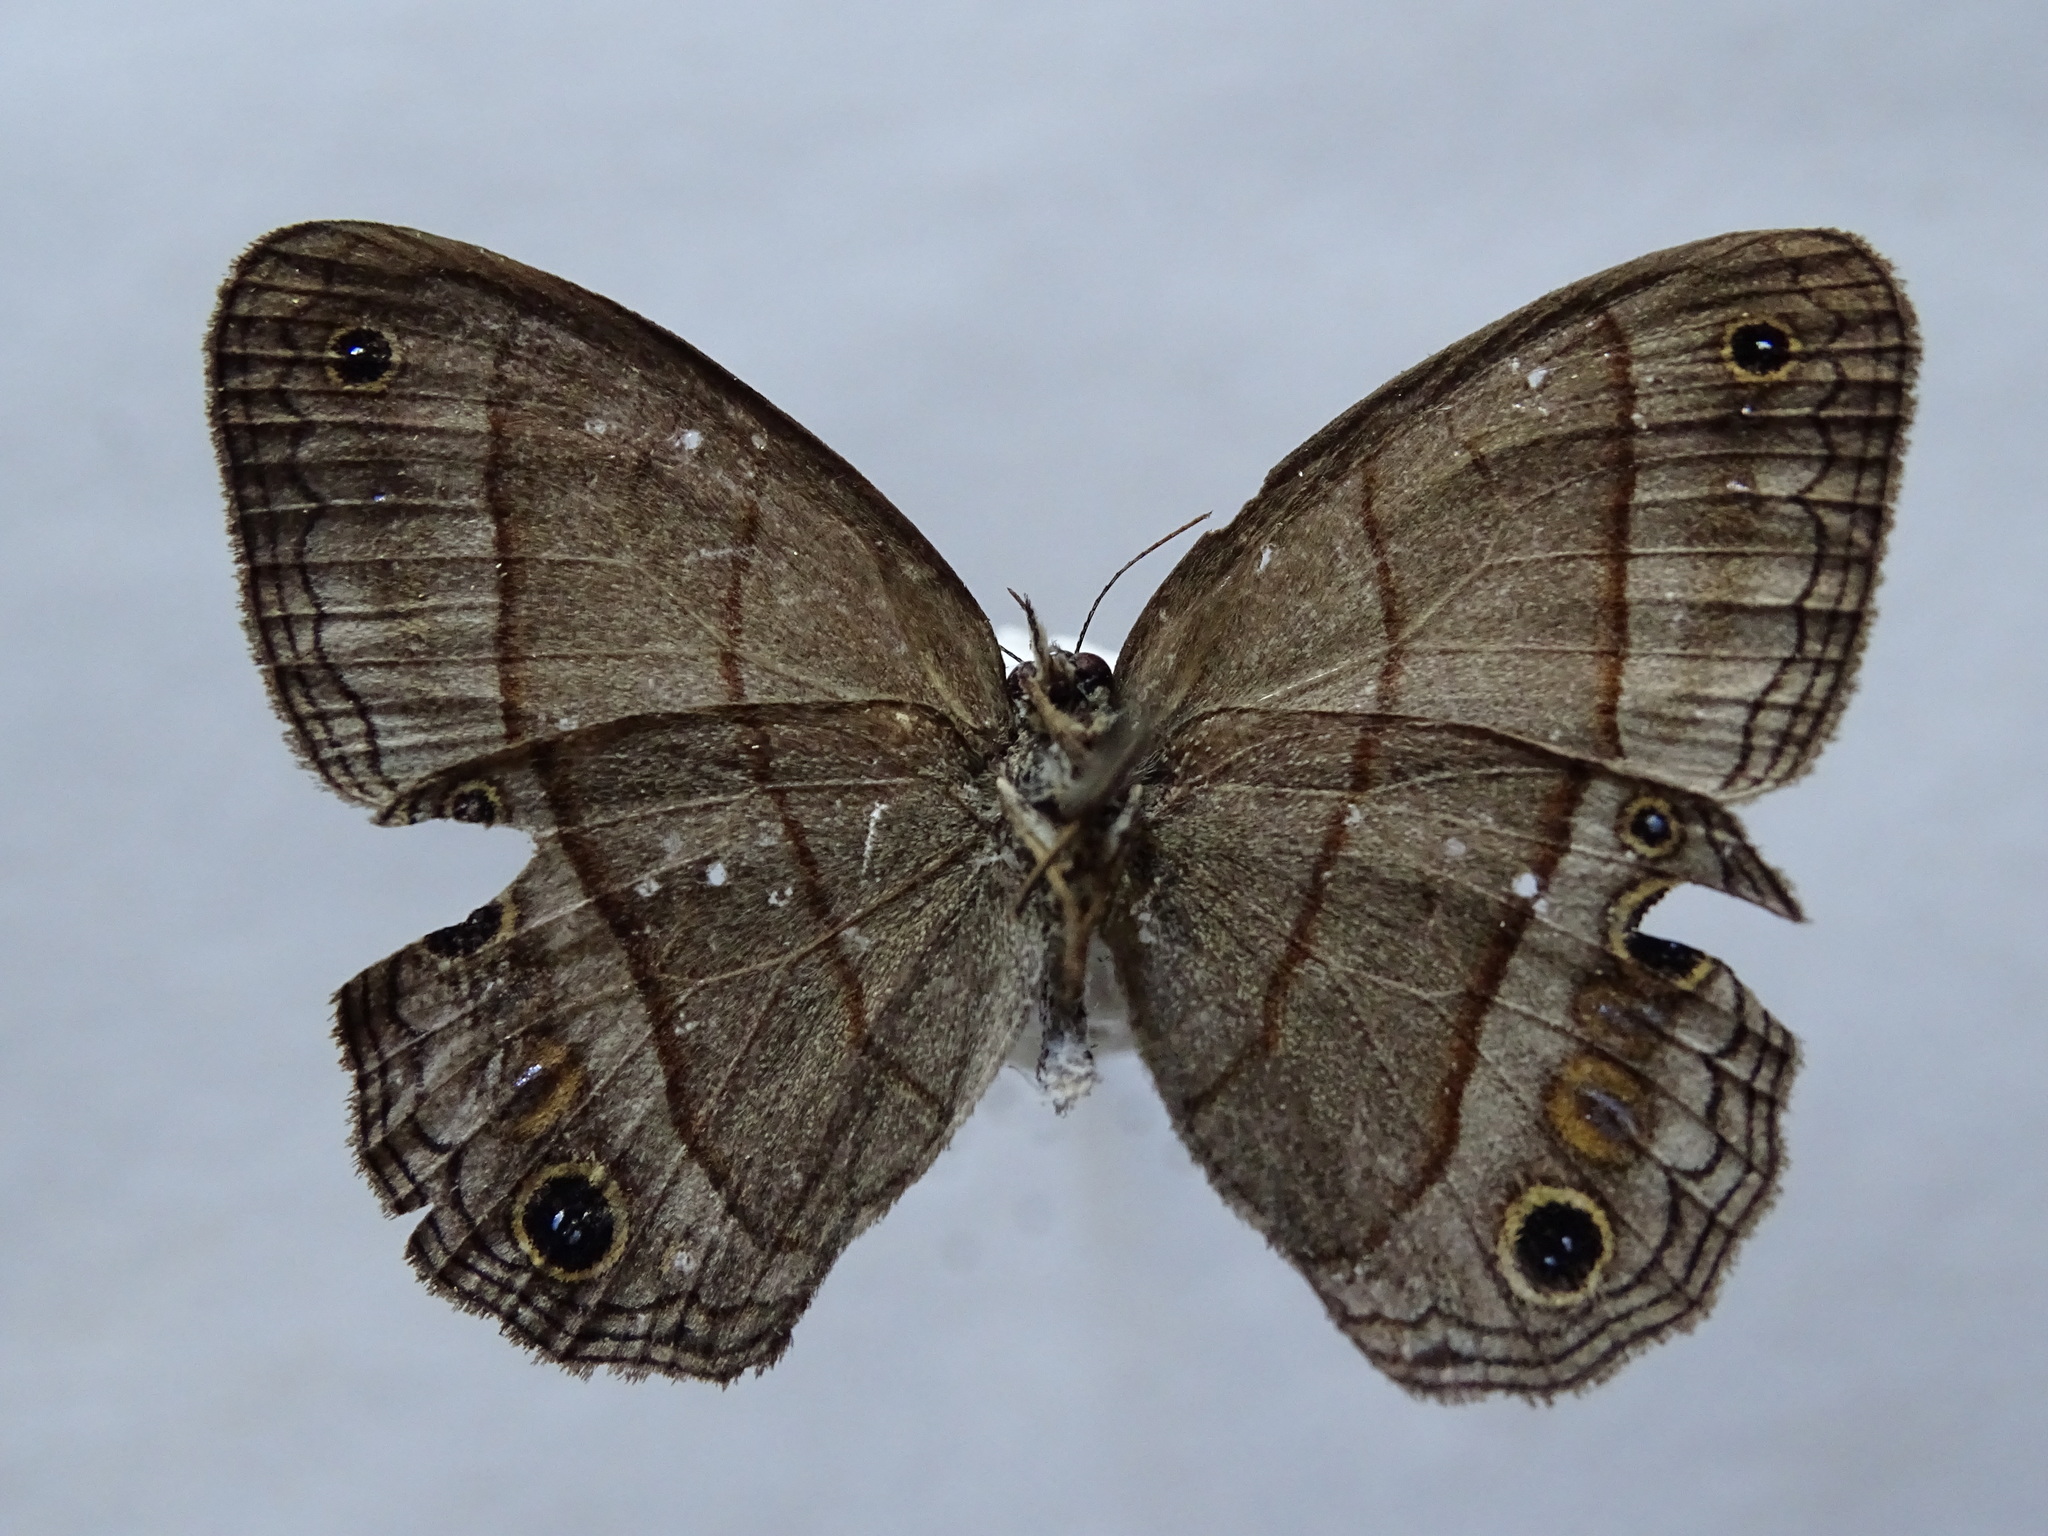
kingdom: Animalia
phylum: Arthropoda
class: Insecta
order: Lepidoptera
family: Nymphalidae
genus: Euptychia
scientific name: Euptychia Cissia pompilia
